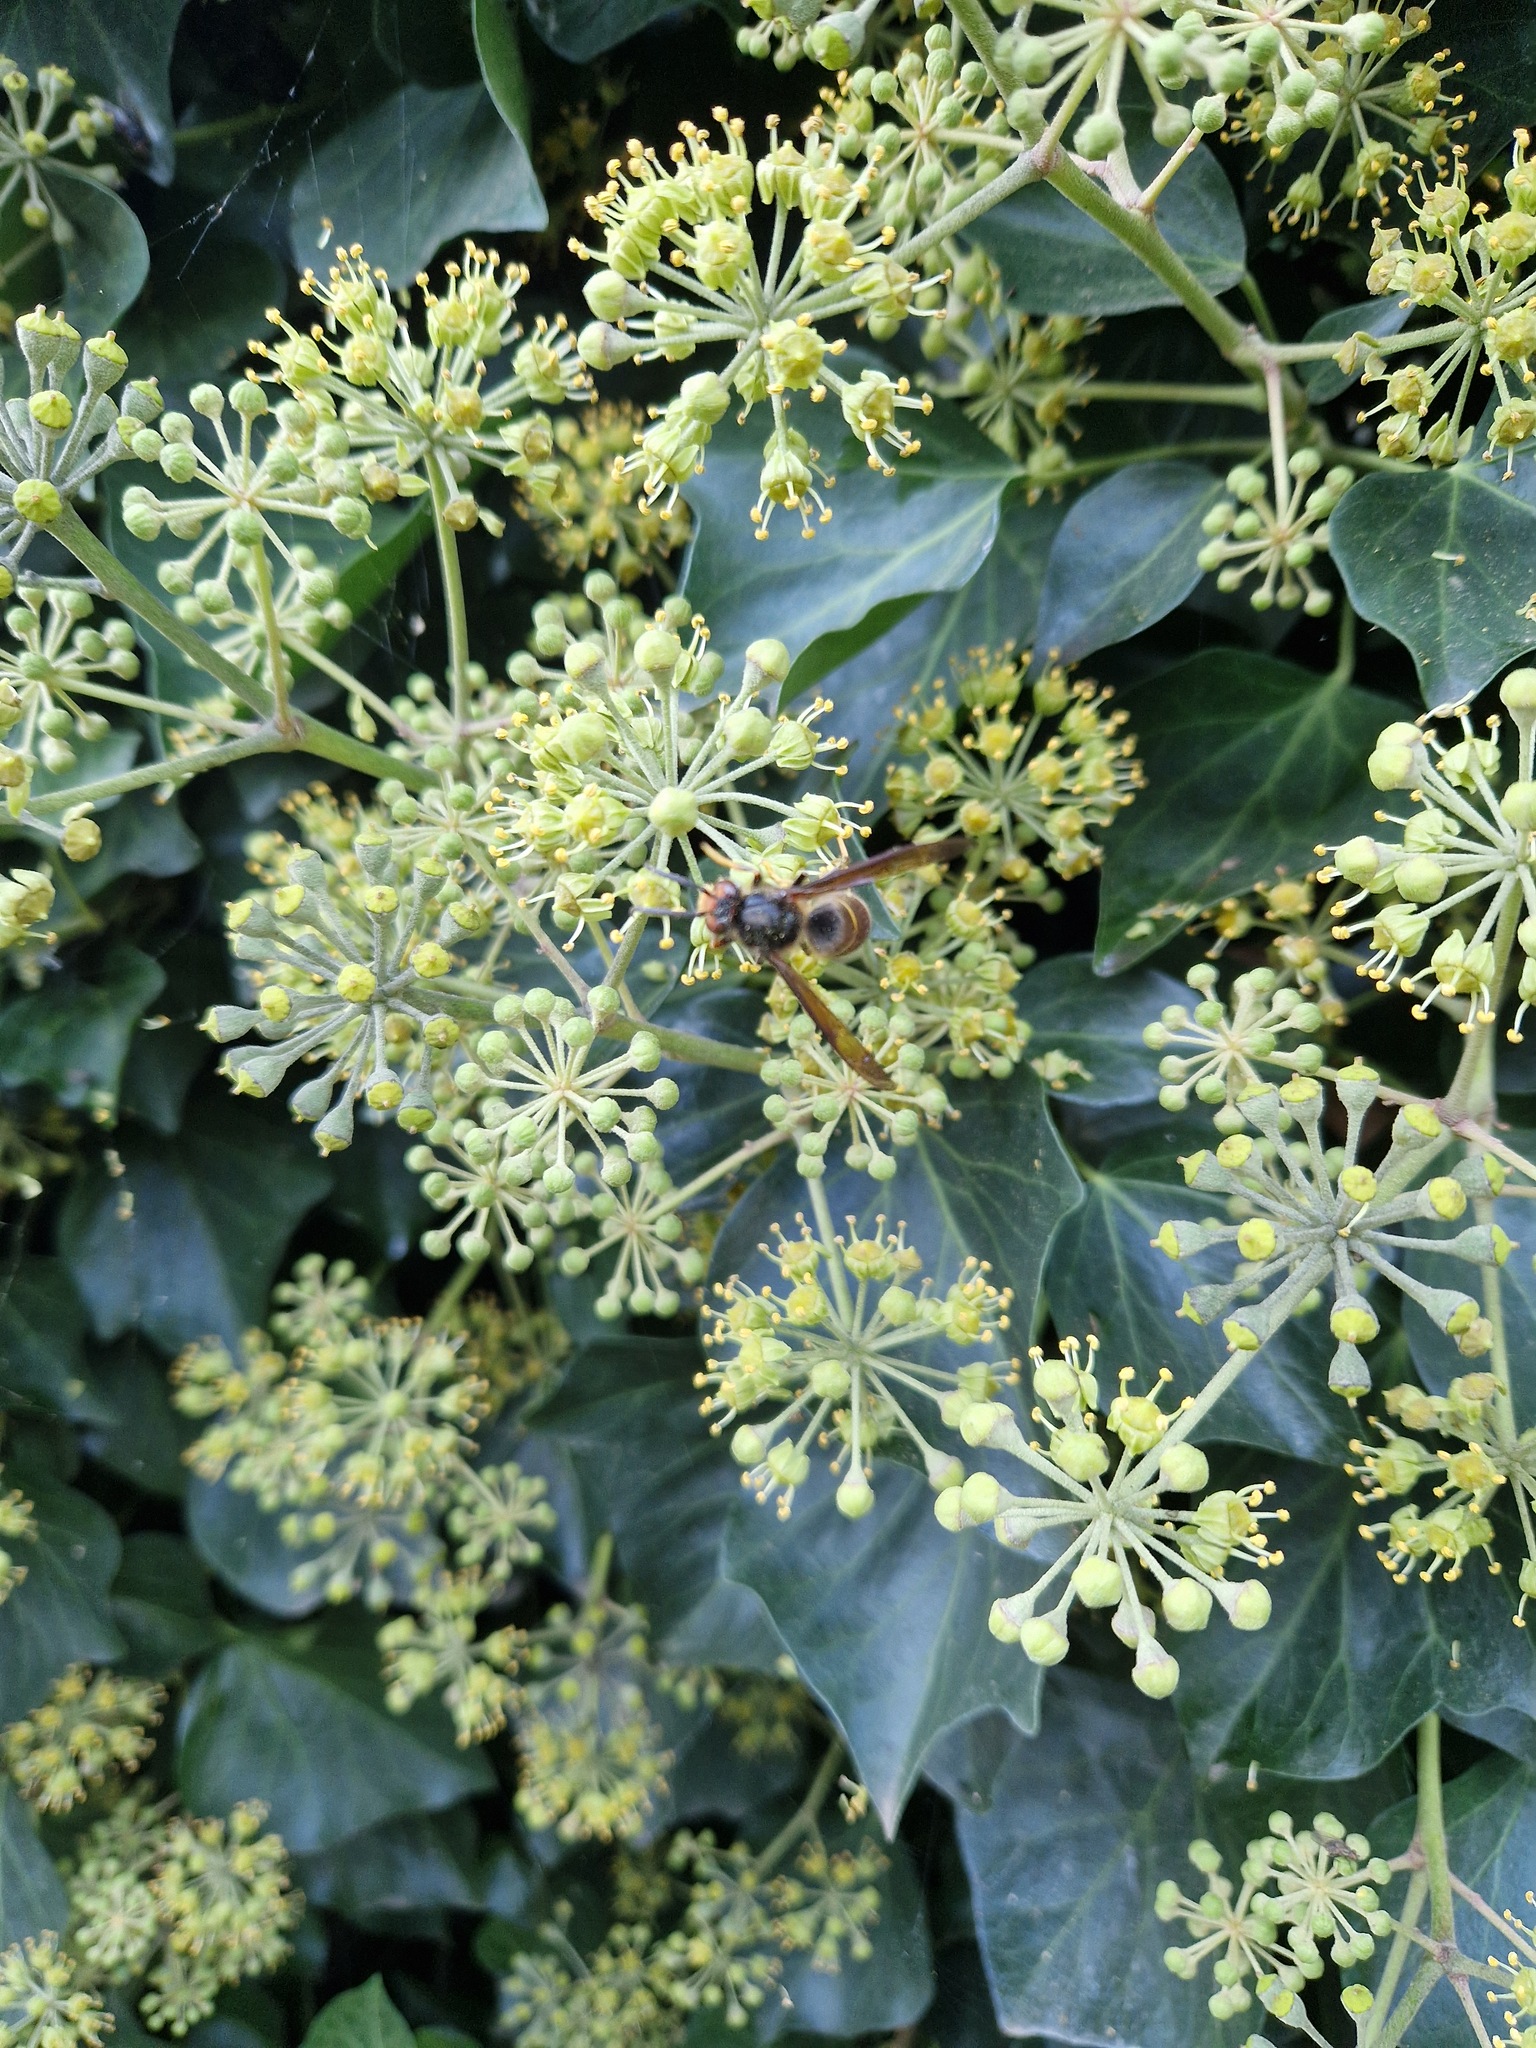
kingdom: Animalia
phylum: Arthropoda
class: Insecta
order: Hymenoptera
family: Vespidae
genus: Vespa
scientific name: Vespa velutina
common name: Asian hornet
